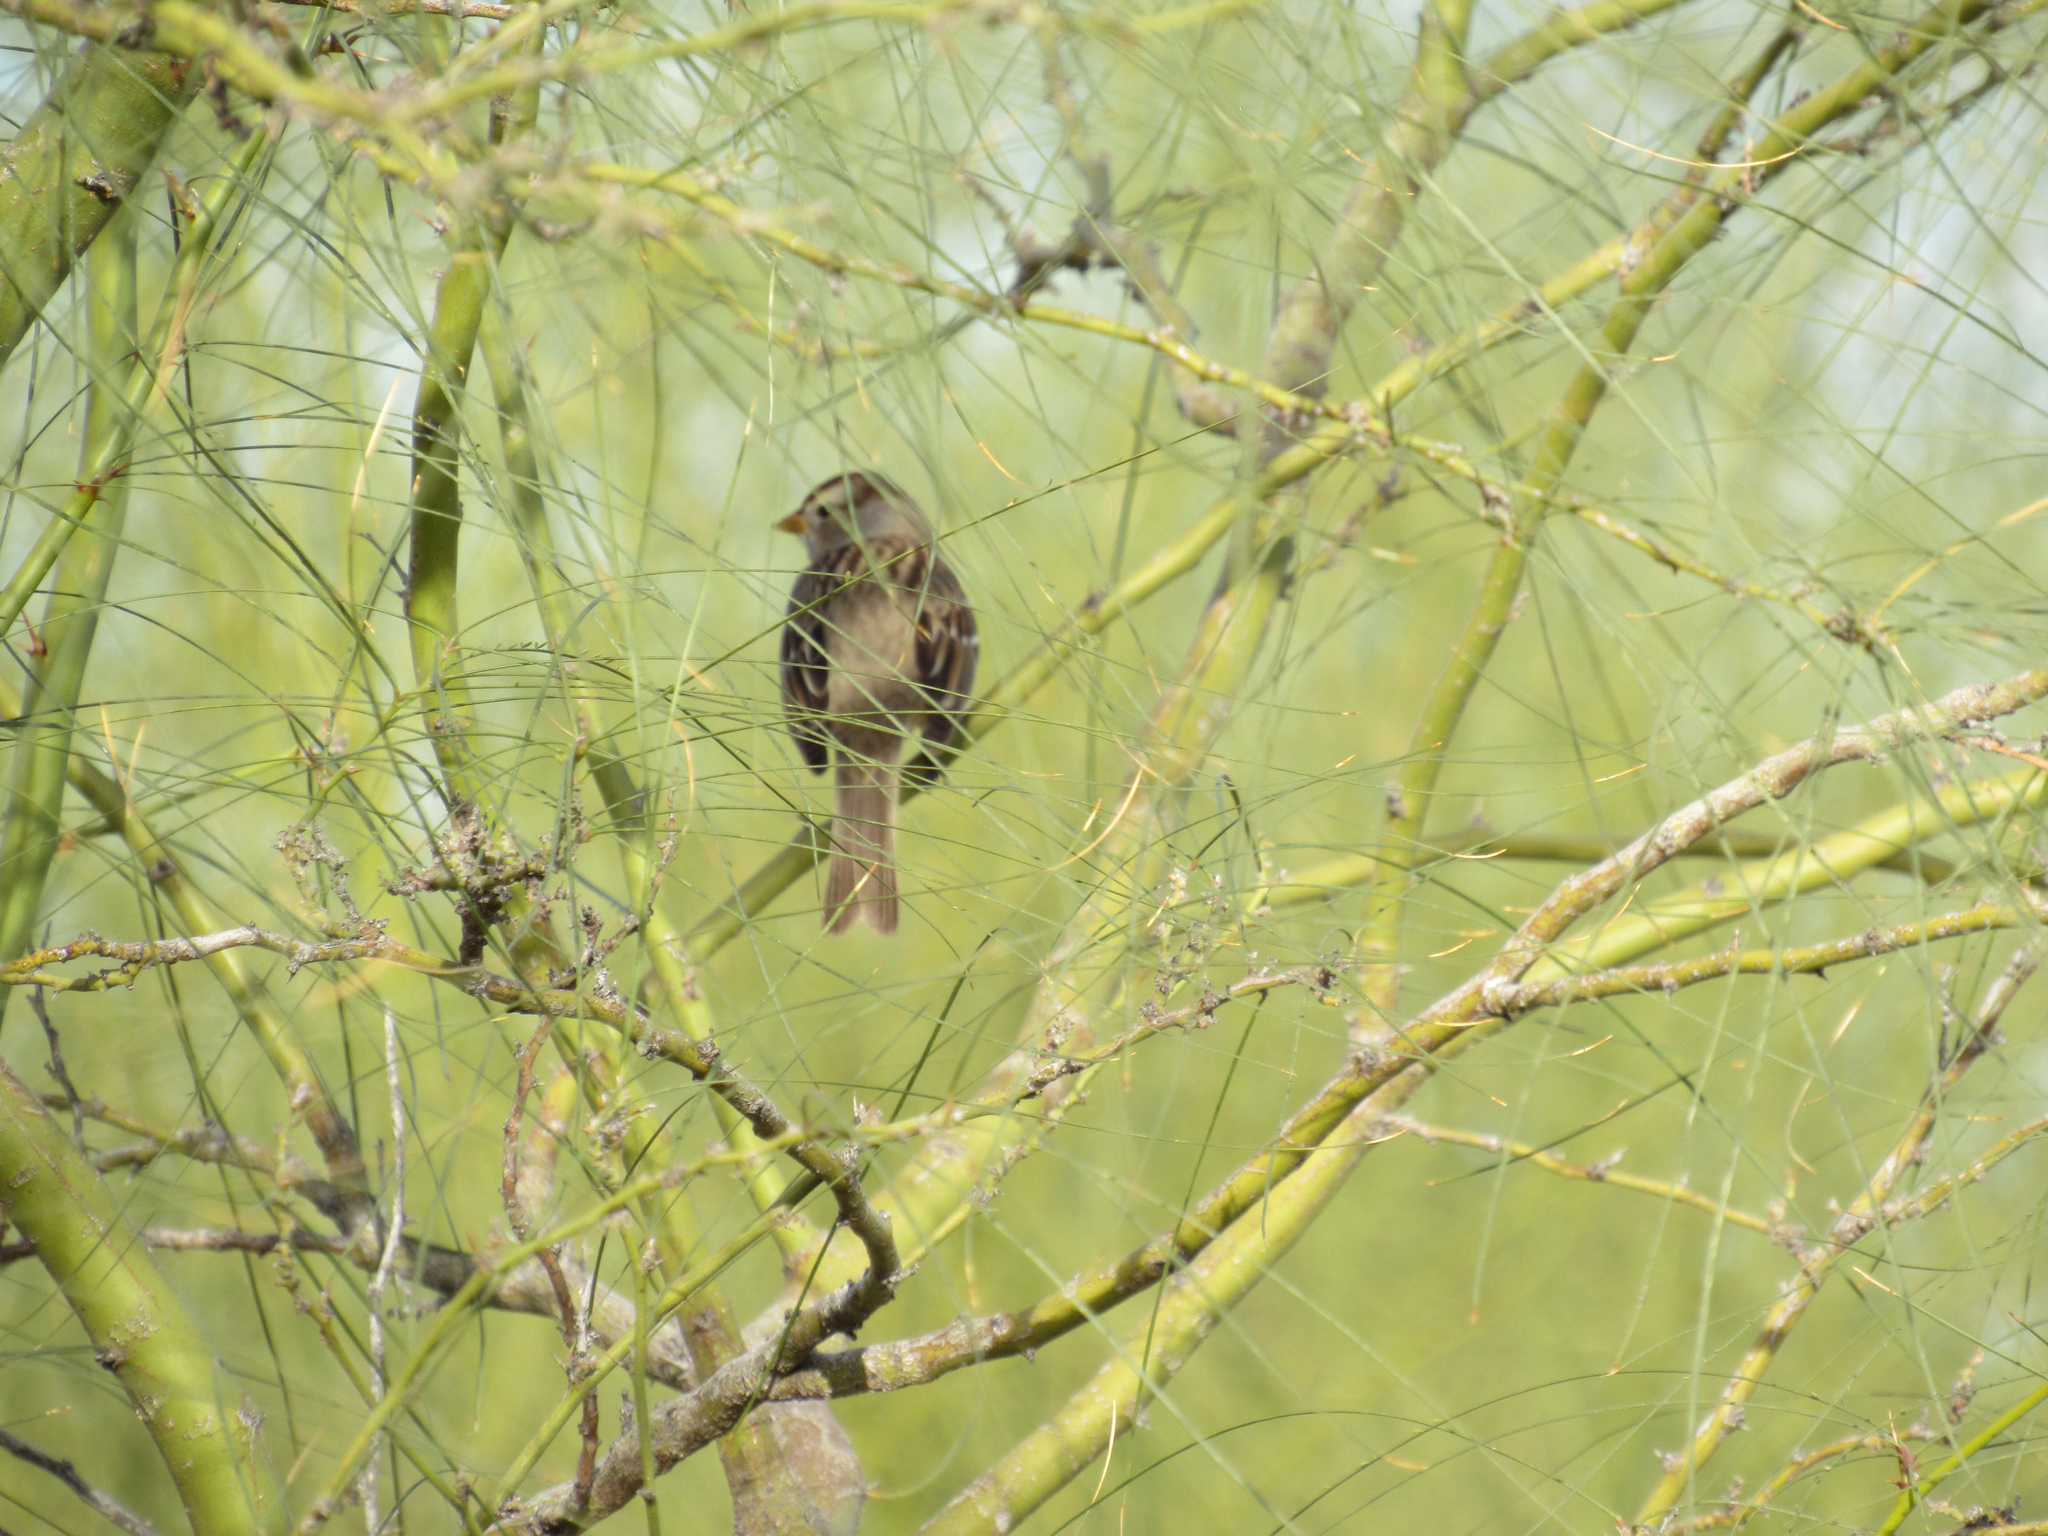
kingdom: Animalia
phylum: Chordata
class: Aves
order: Passeriformes
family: Passerellidae
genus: Zonotrichia
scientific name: Zonotrichia leucophrys
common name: White-crowned sparrow
